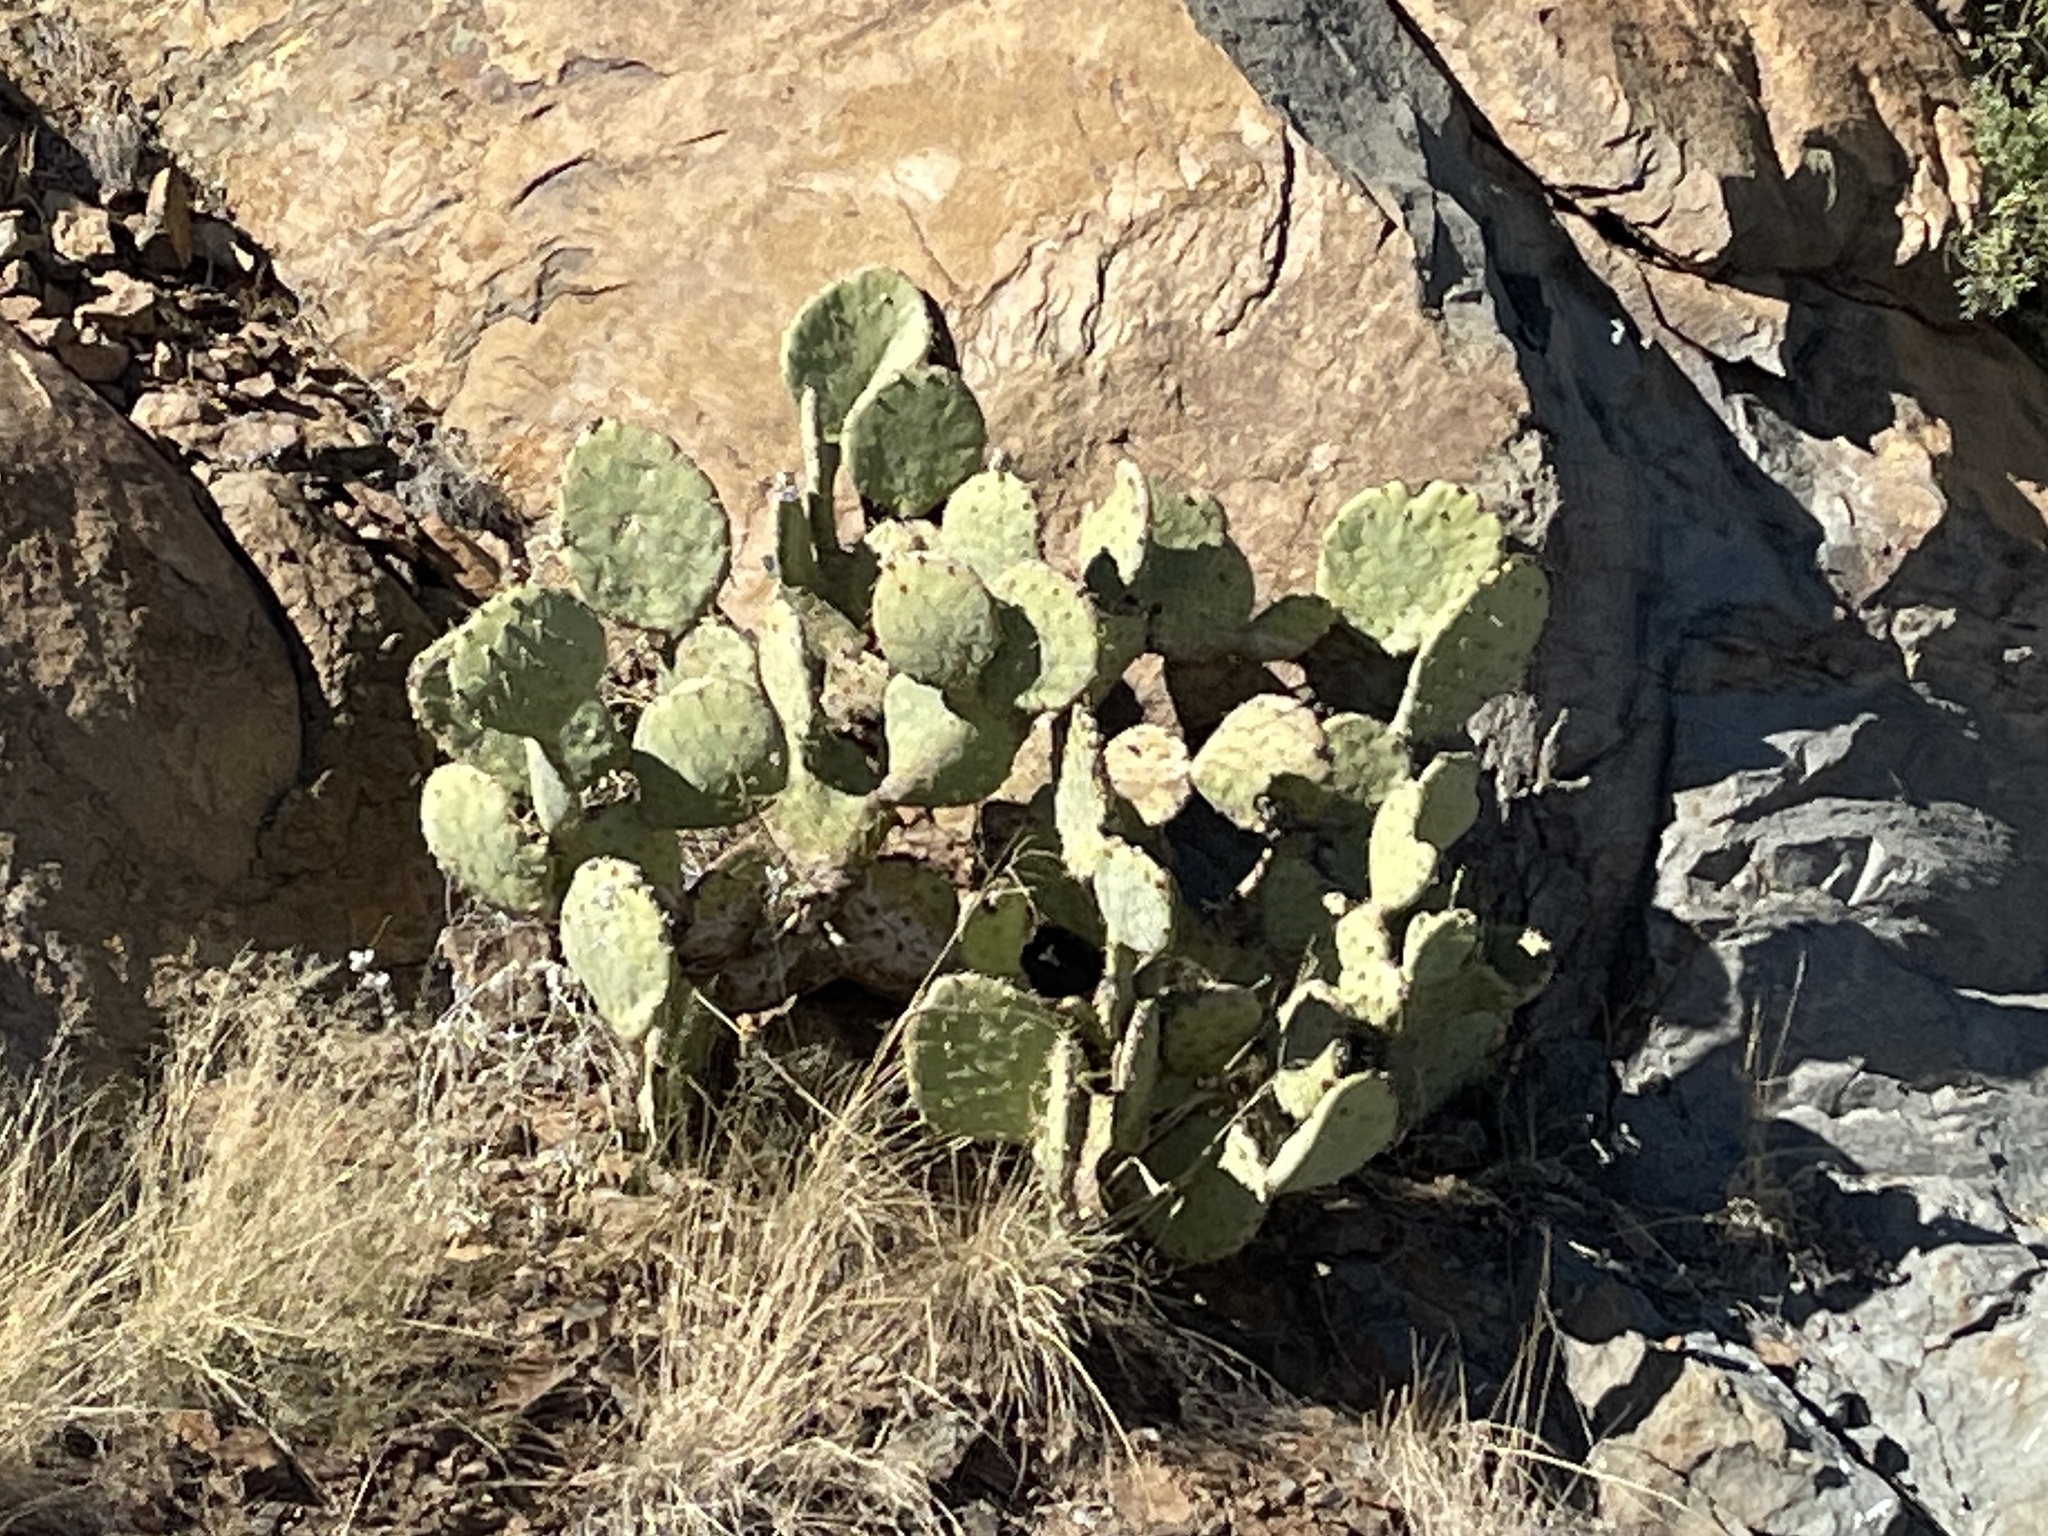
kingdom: Plantae
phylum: Tracheophyta
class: Magnoliopsida
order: Caryophyllales
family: Cactaceae
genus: Opuntia
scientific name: Opuntia engelmannii
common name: Cactus-apple
